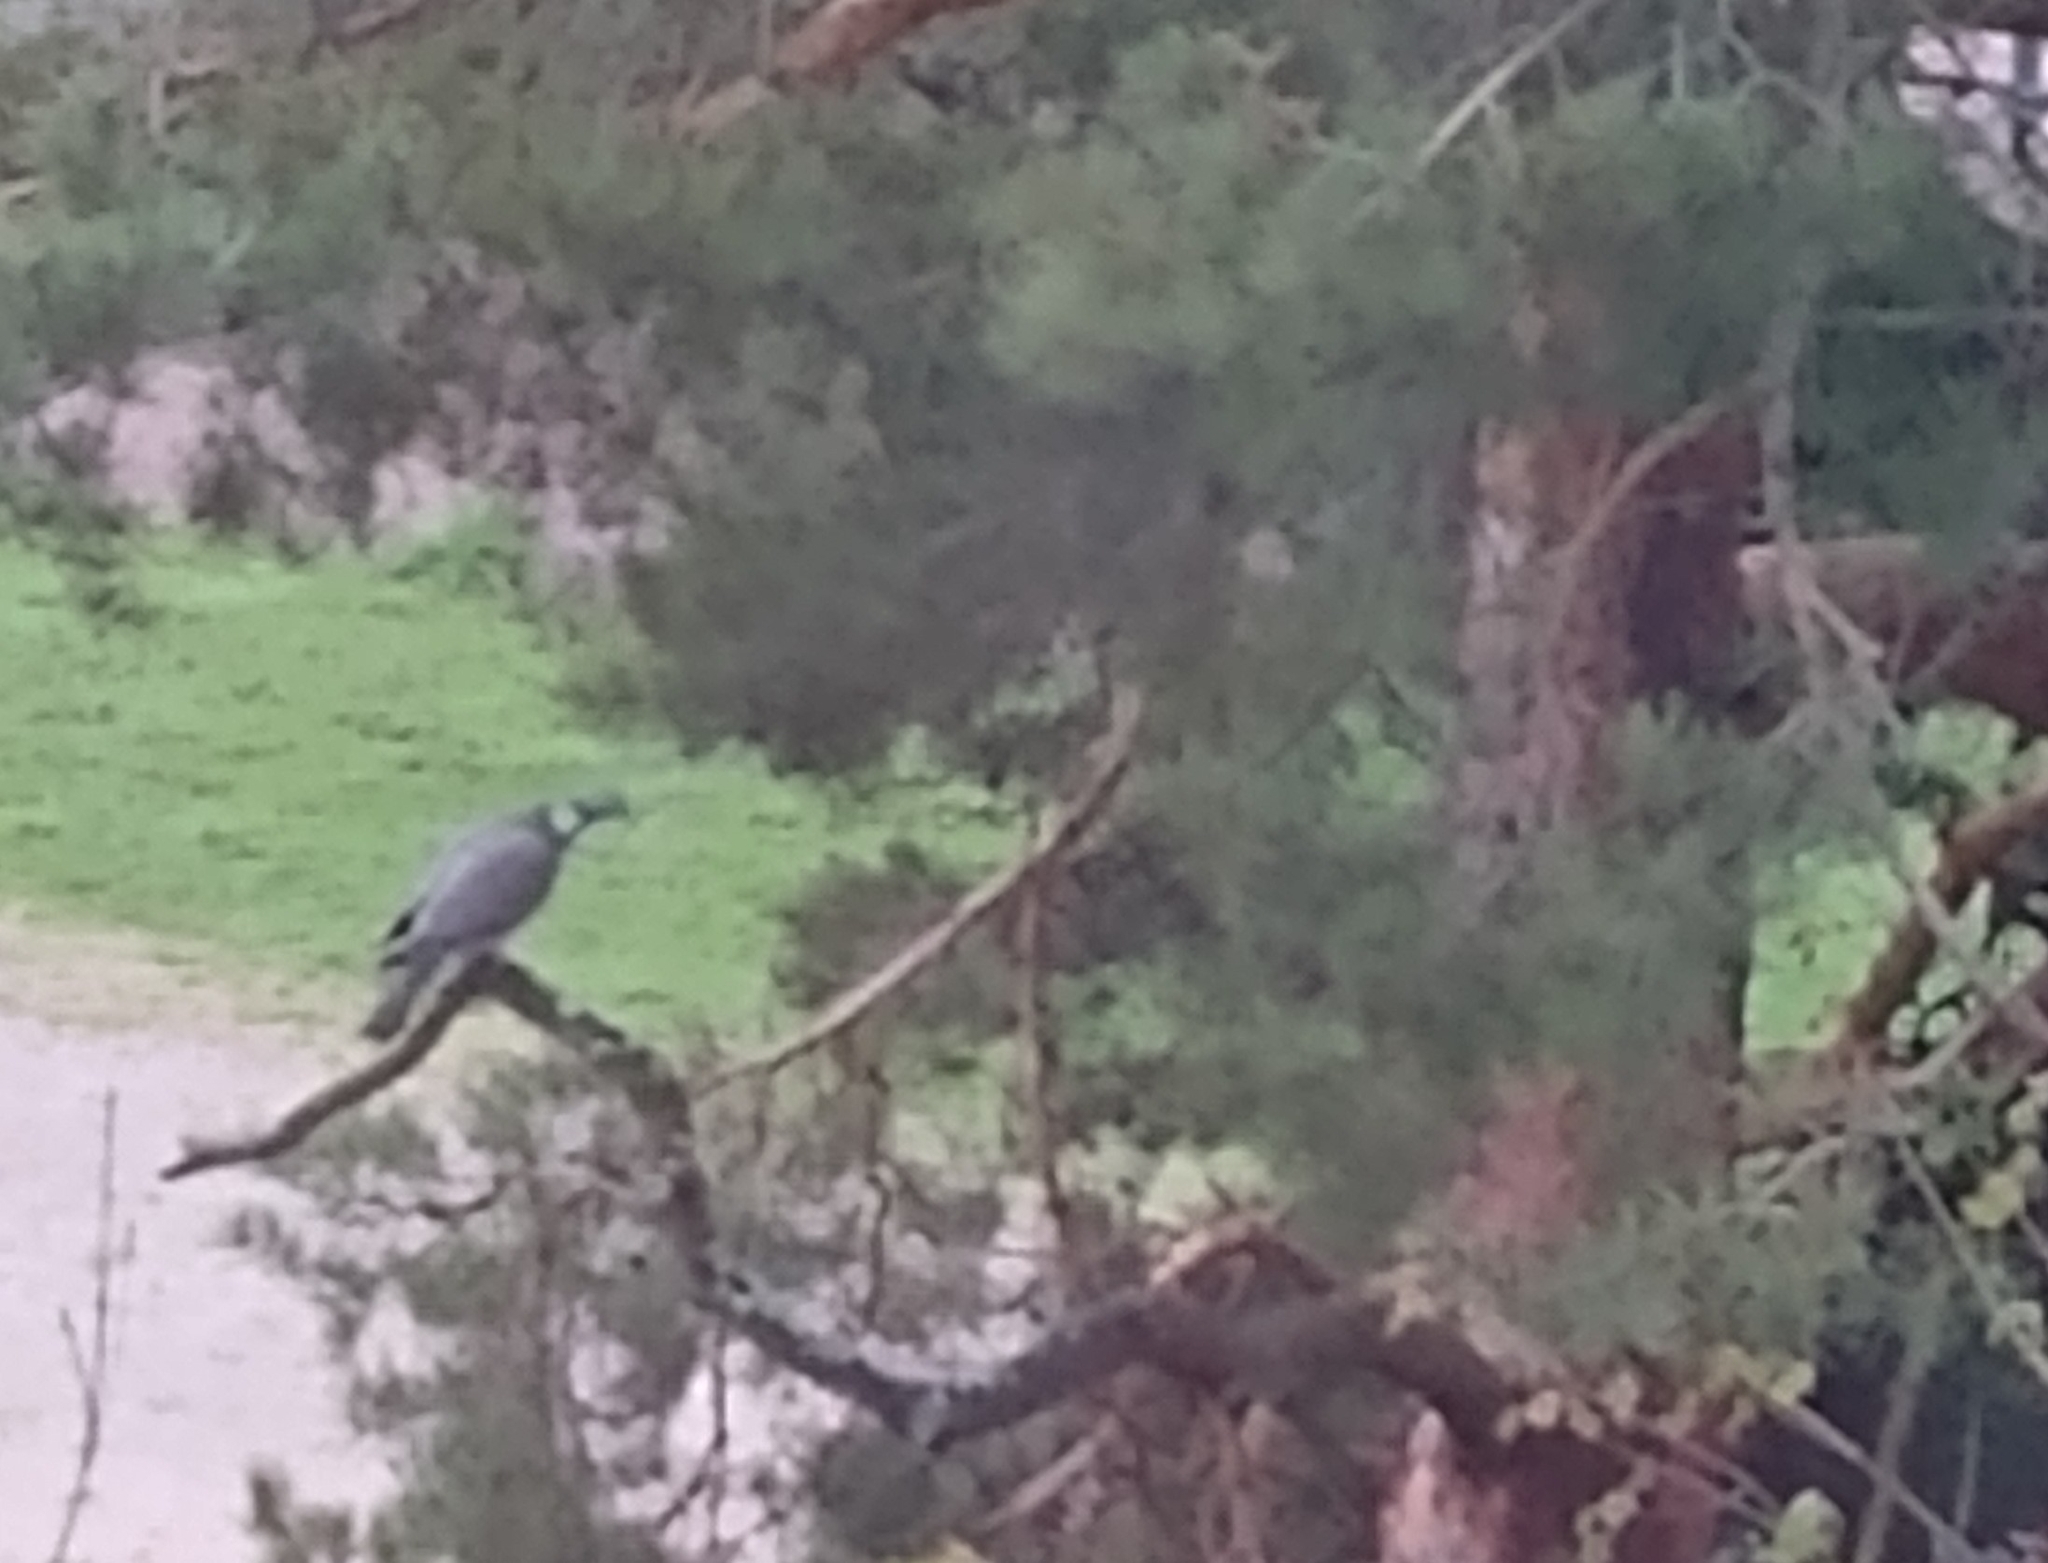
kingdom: Animalia
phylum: Chordata
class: Aves
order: Columbiformes
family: Columbidae
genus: Columba
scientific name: Columba palumbus
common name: Common wood pigeon
